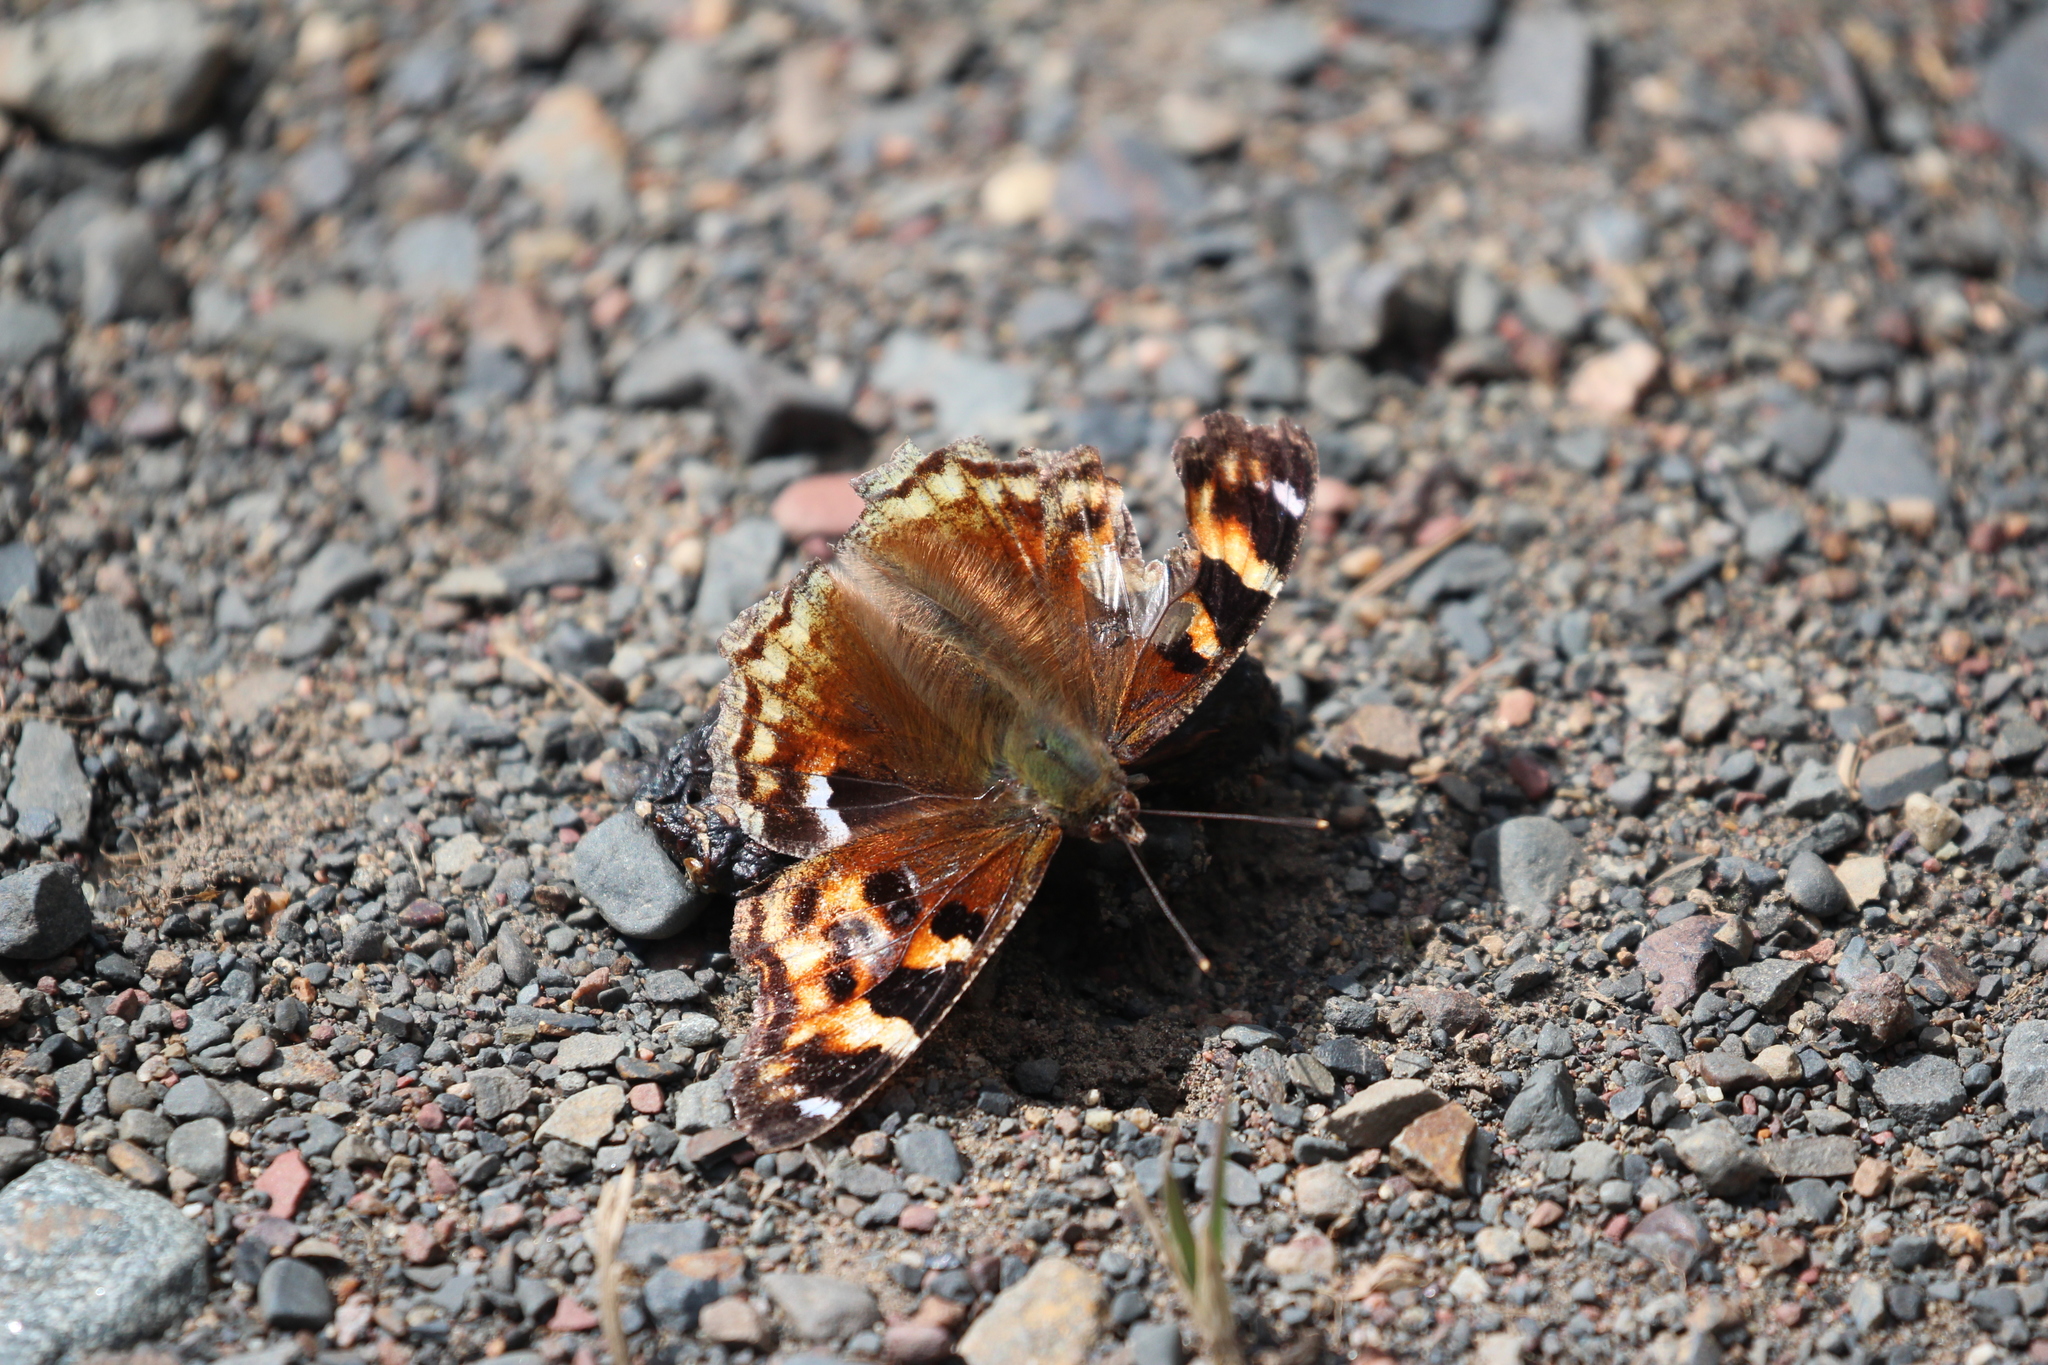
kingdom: Animalia
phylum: Arthropoda
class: Insecta
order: Lepidoptera
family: Nymphalidae
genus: Polygonia
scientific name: Polygonia vaualbum
